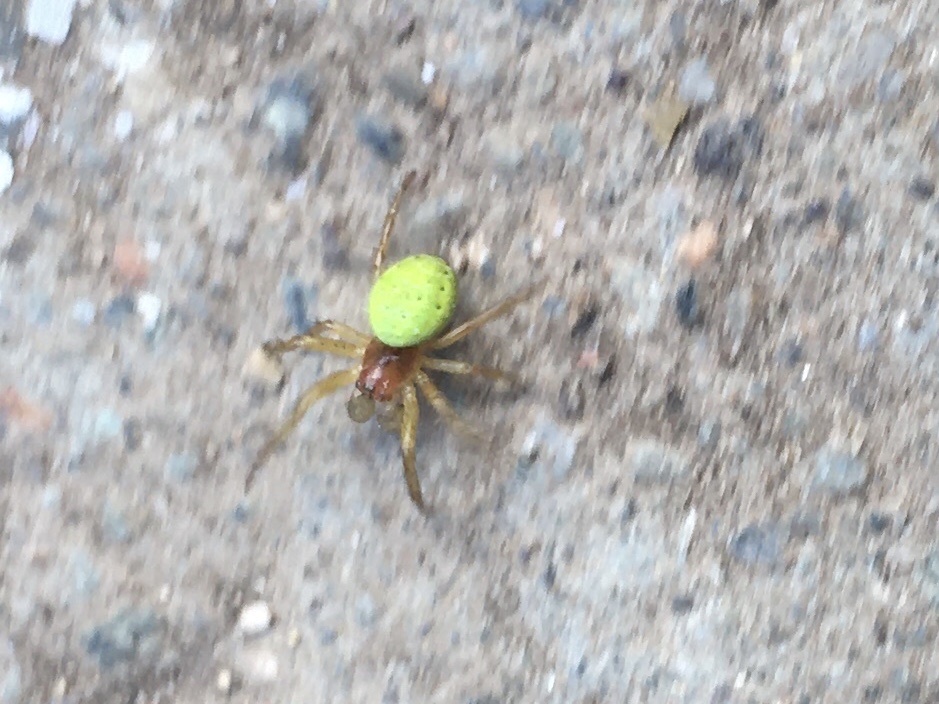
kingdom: Animalia
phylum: Arthropoda
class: Arachnida
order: Araneae
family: Araneidae
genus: Araniella
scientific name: Araniella
